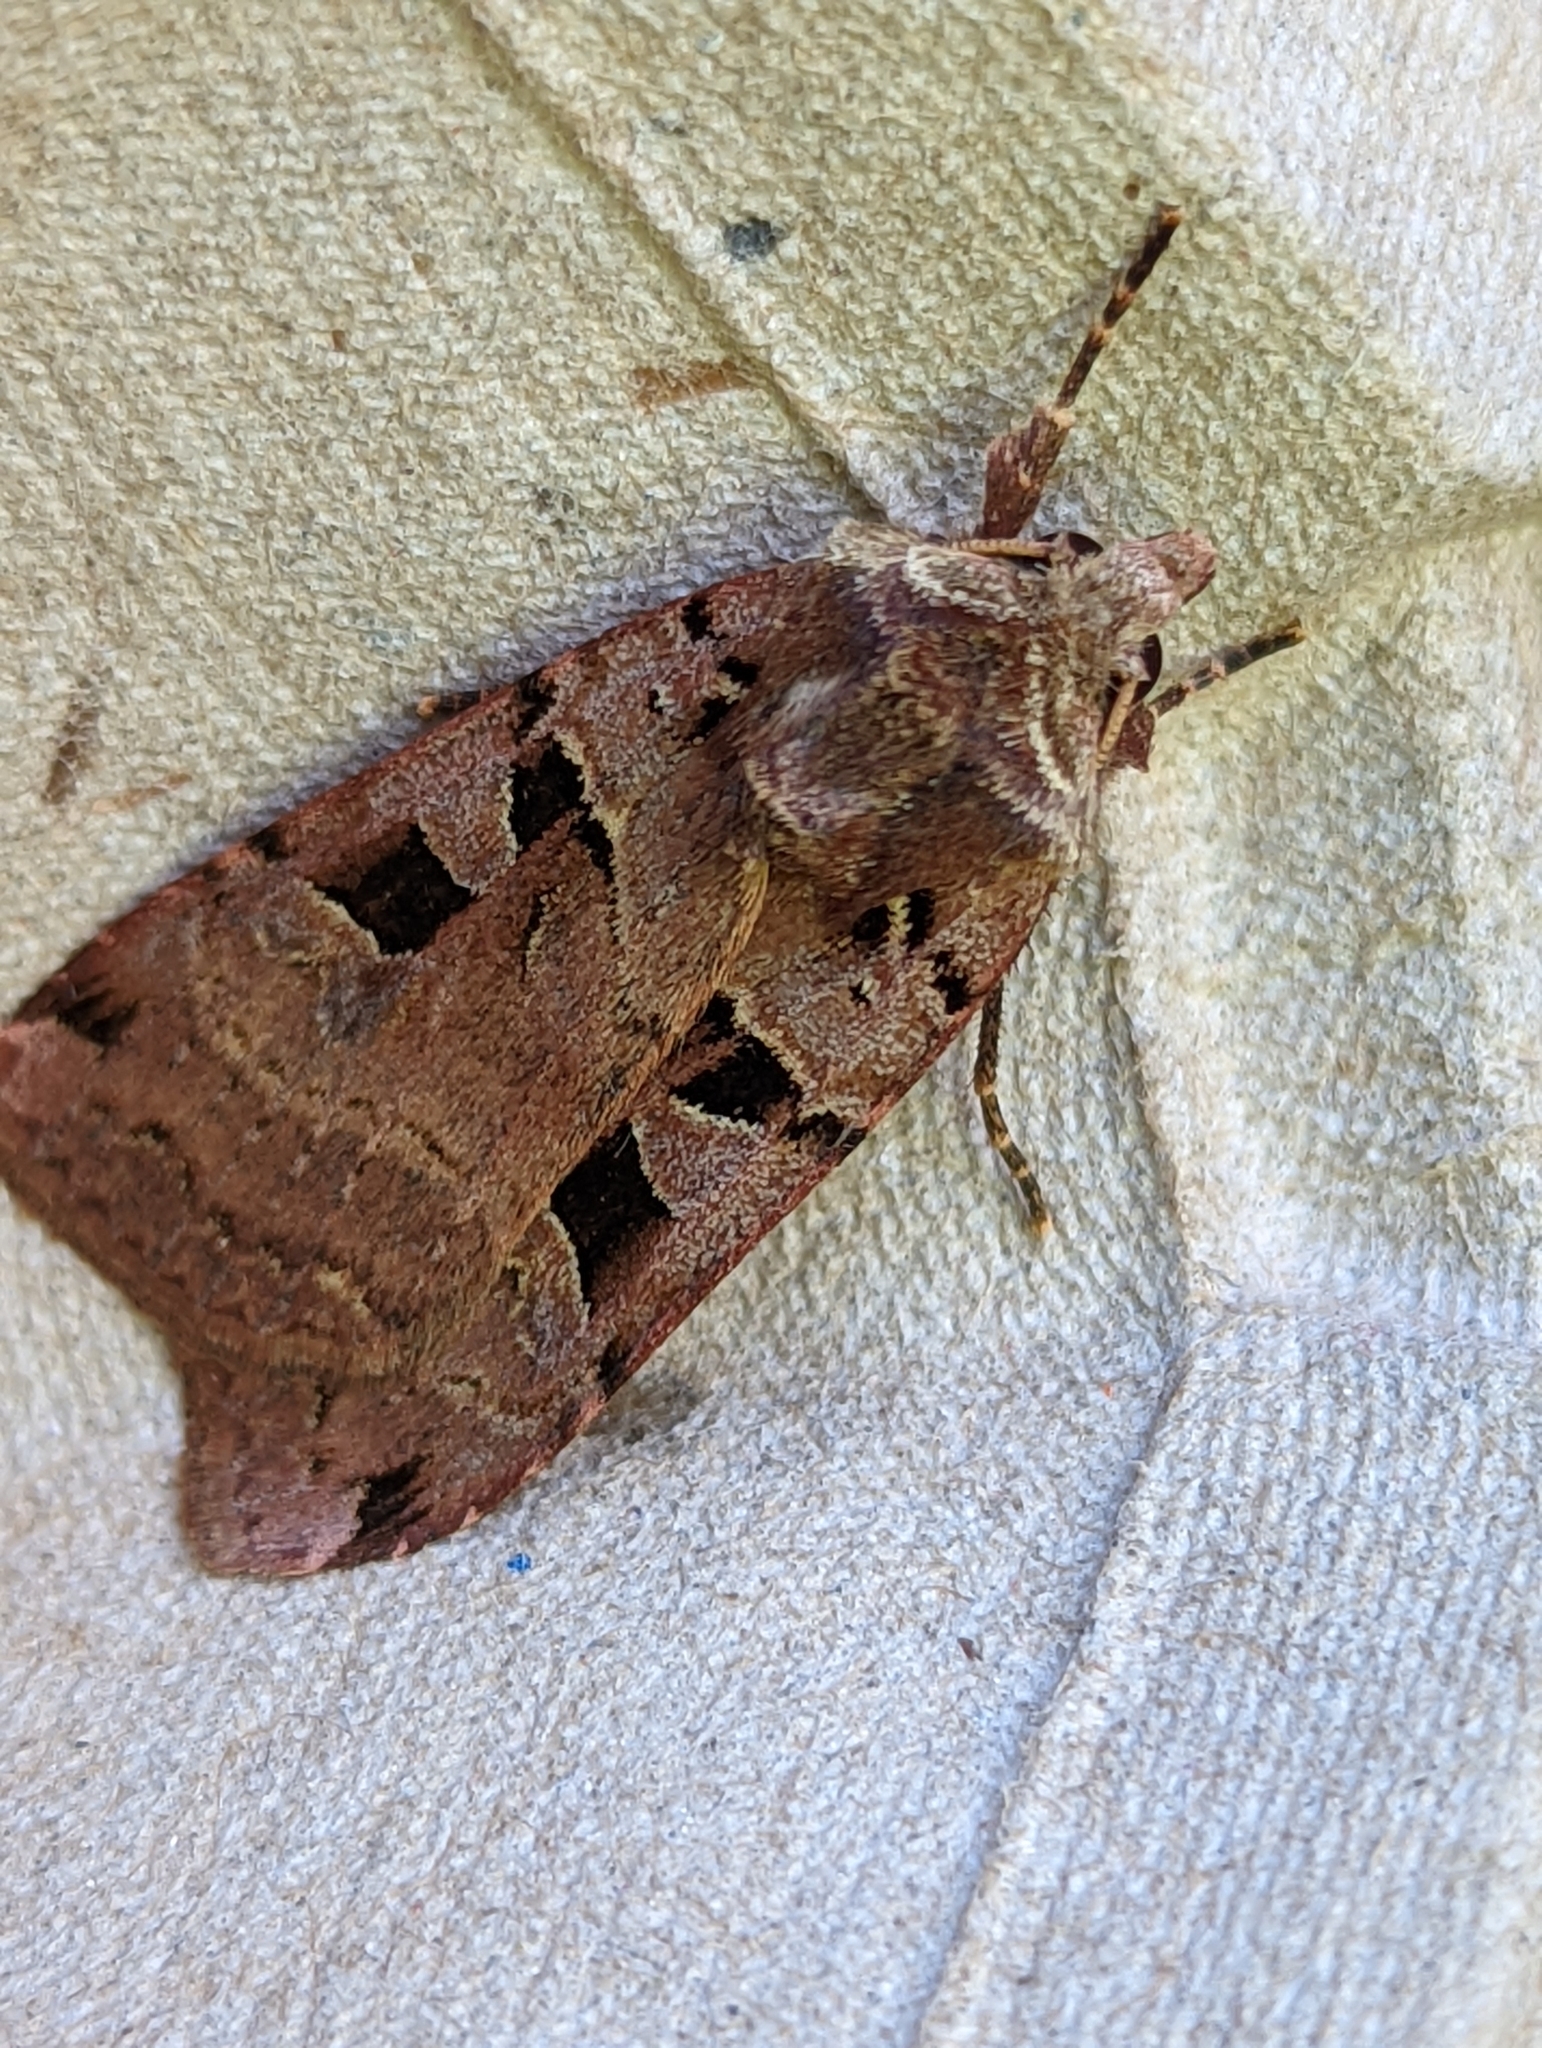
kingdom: Animalia
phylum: Arthropoda
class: Insecta
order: Lepidoptera
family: Noctuidae
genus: Xestia
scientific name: Xestia triangulum
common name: Double square-spot
